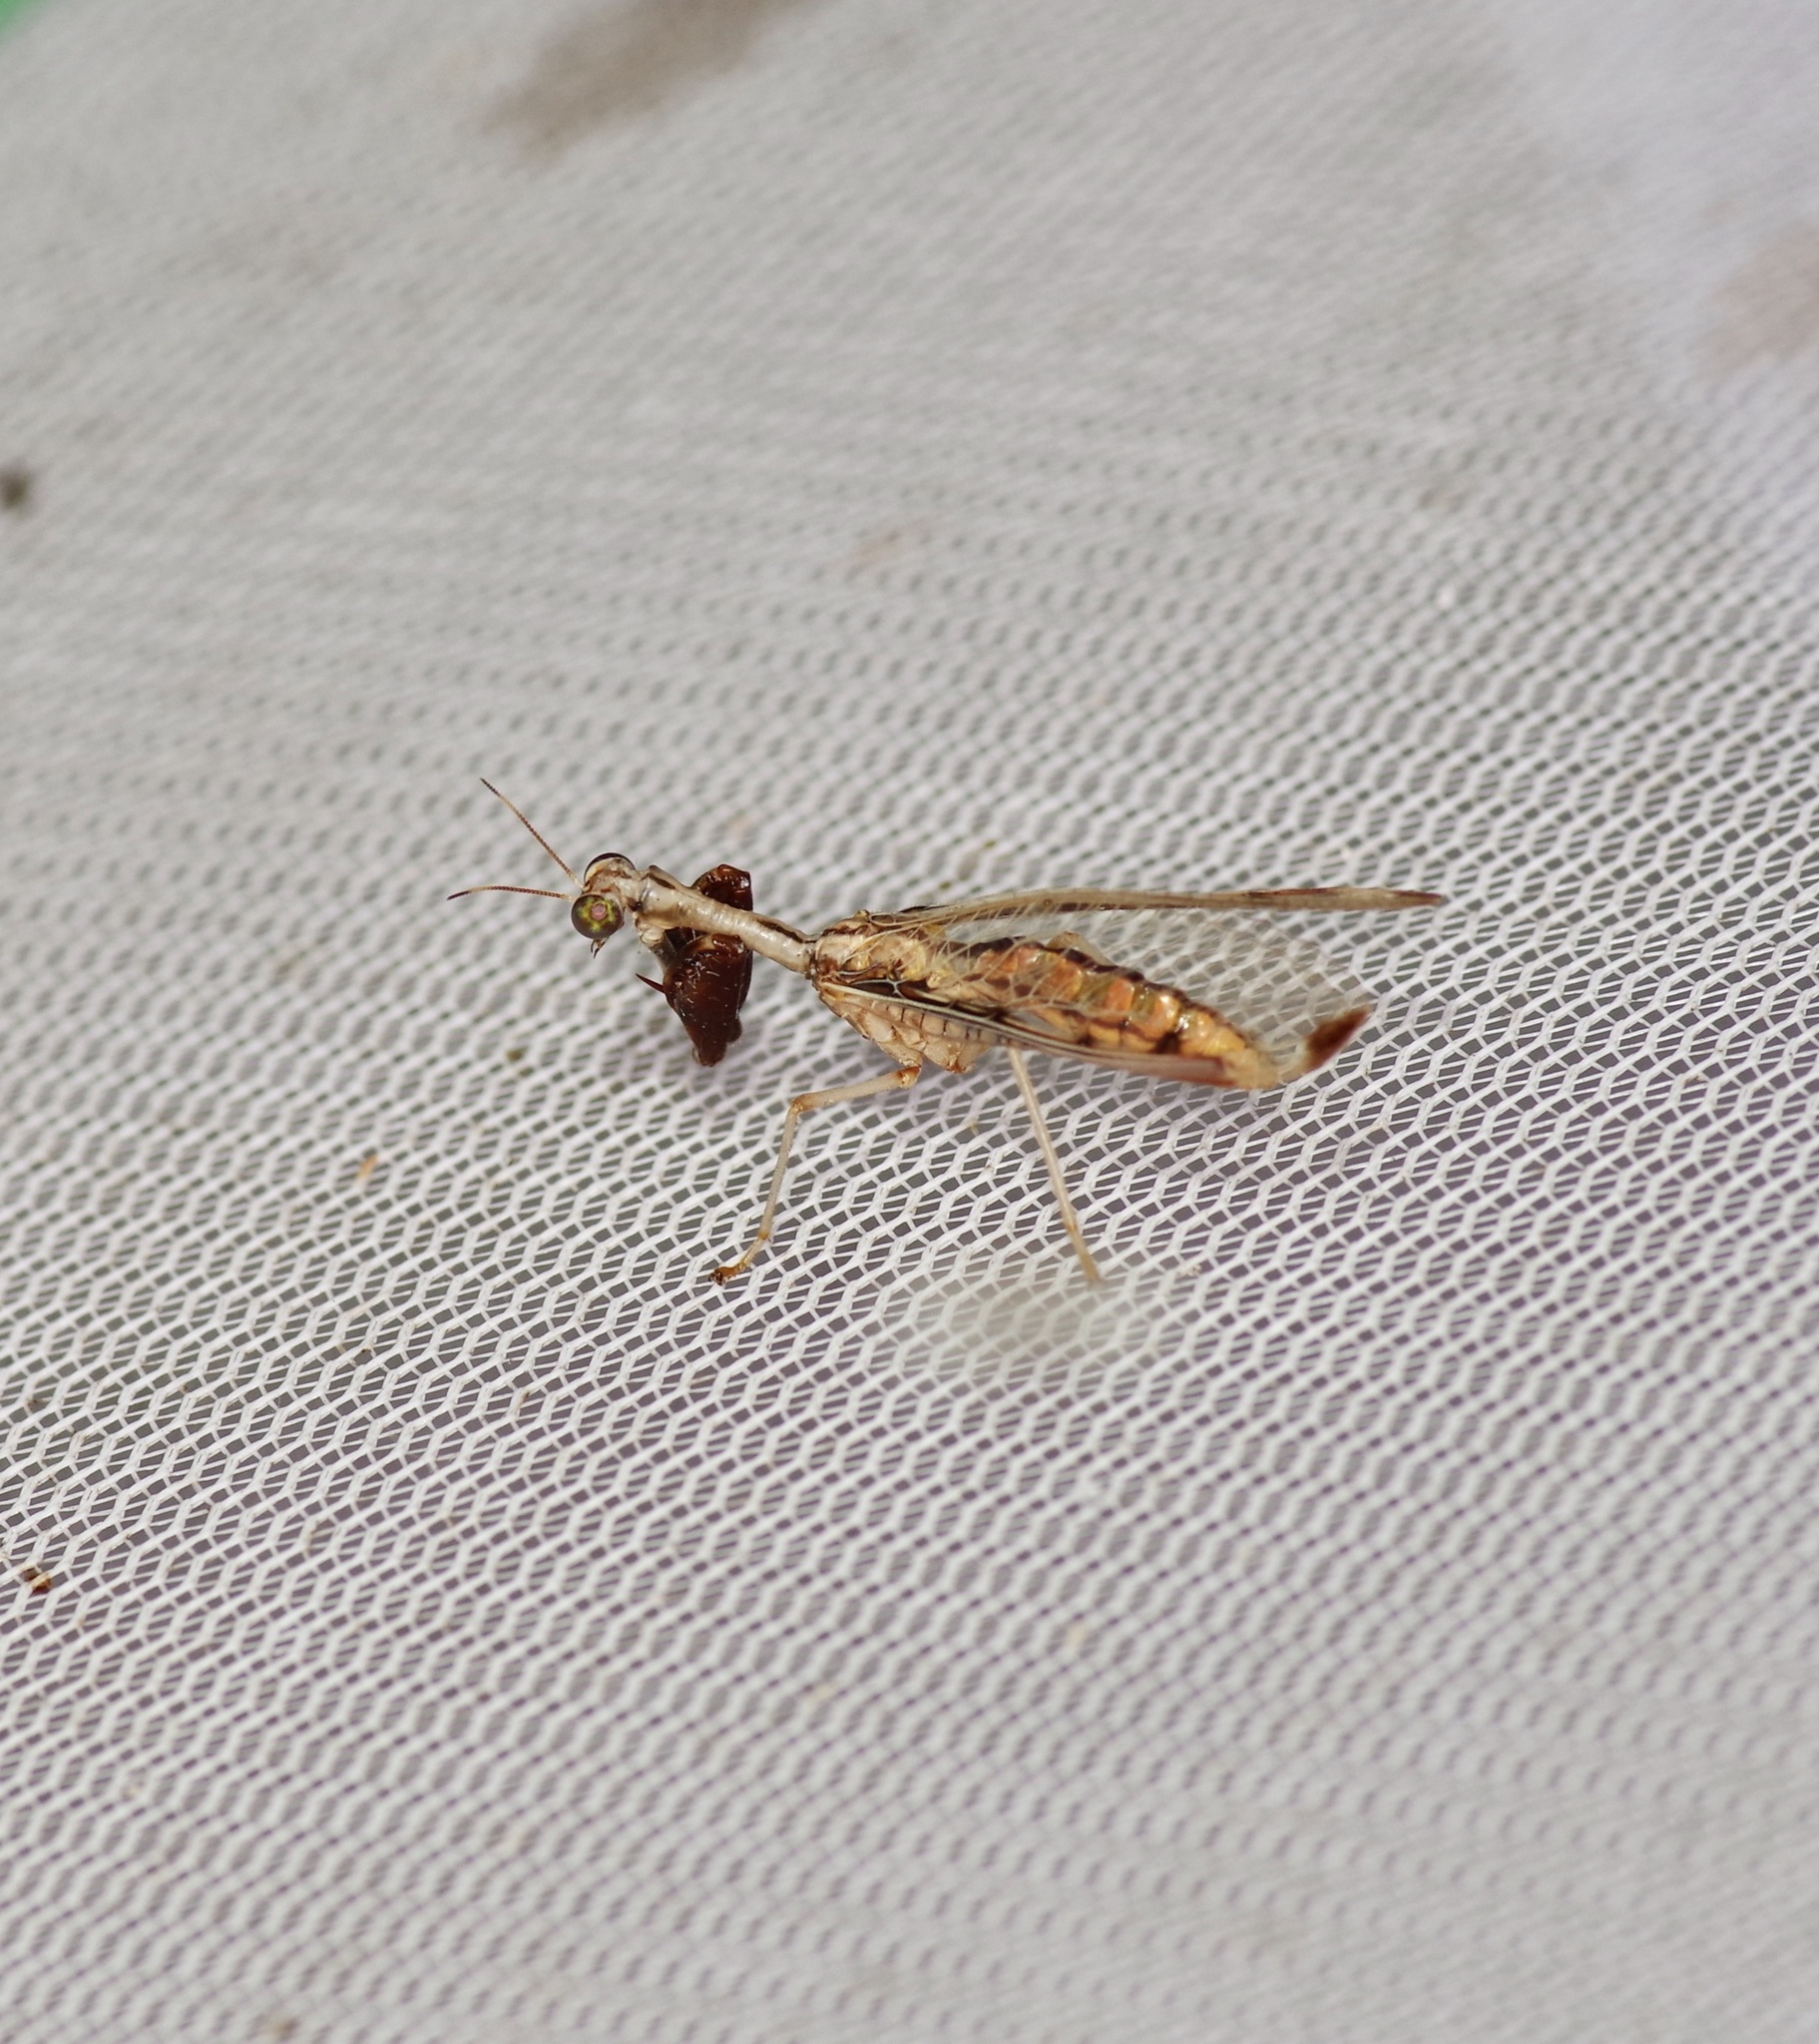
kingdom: Animalia
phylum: Arthropoda
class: Insecta
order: Neuroptera
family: Mantispidae
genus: Dicromantispa
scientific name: Dicromantispa interrupta
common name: Four-spotted mantidfly
